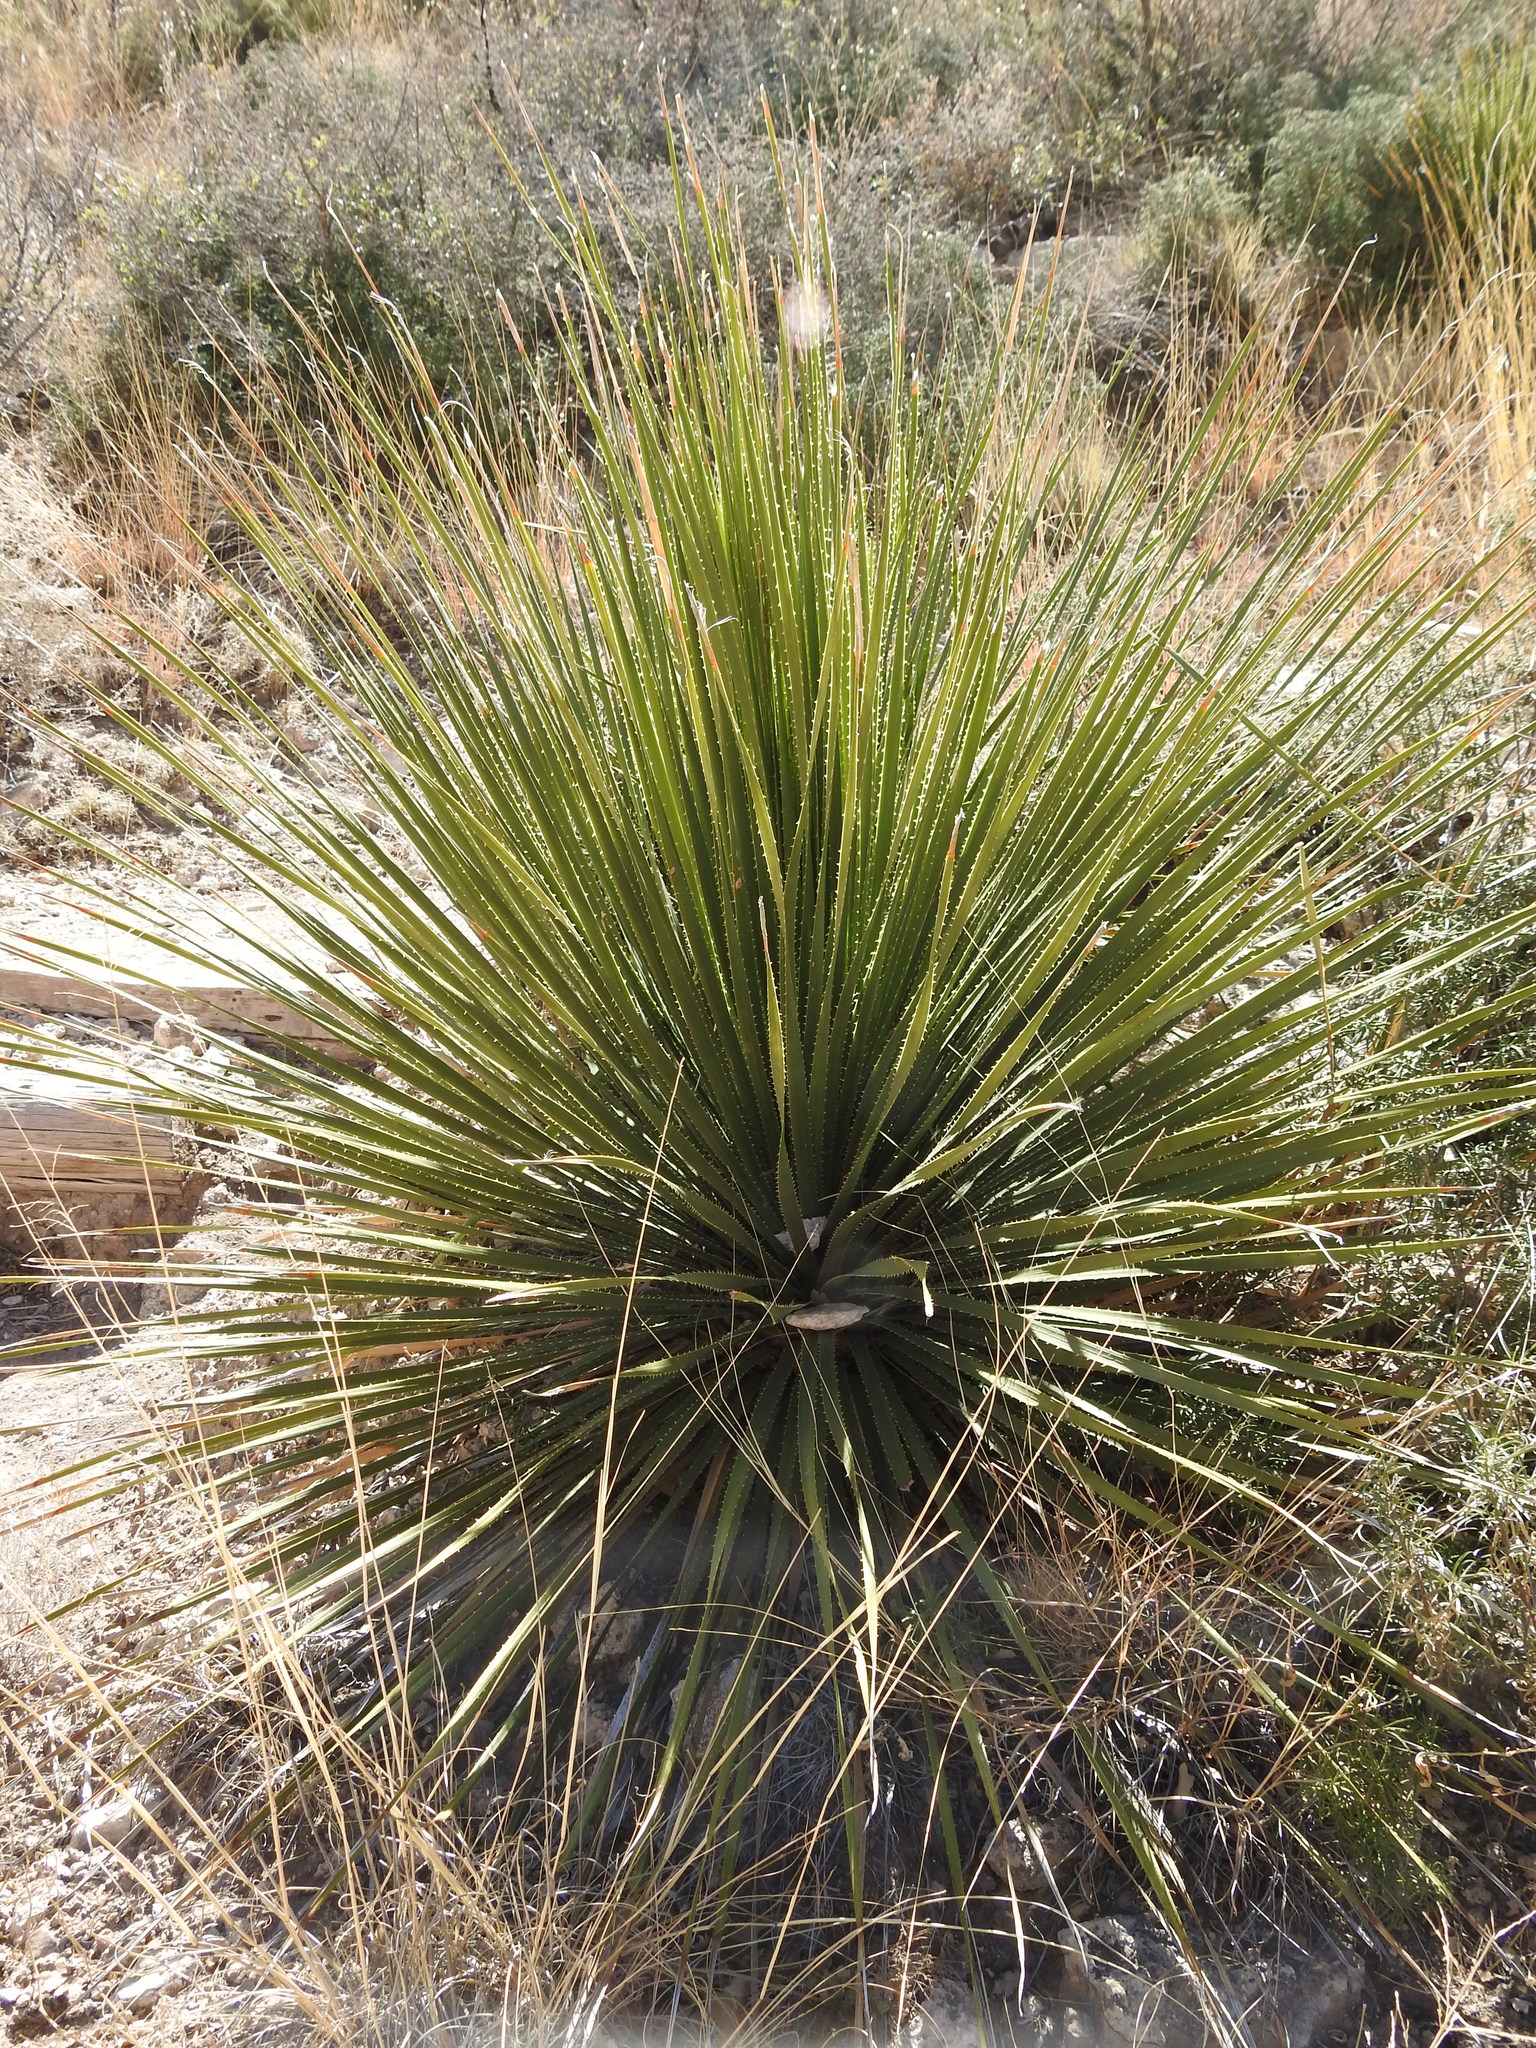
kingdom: Plantae
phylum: Tracheophyta
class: Liliopsida
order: Asparagales
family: Asparagaceae
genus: Dasylirion
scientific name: Dasylirion leiophyllum
